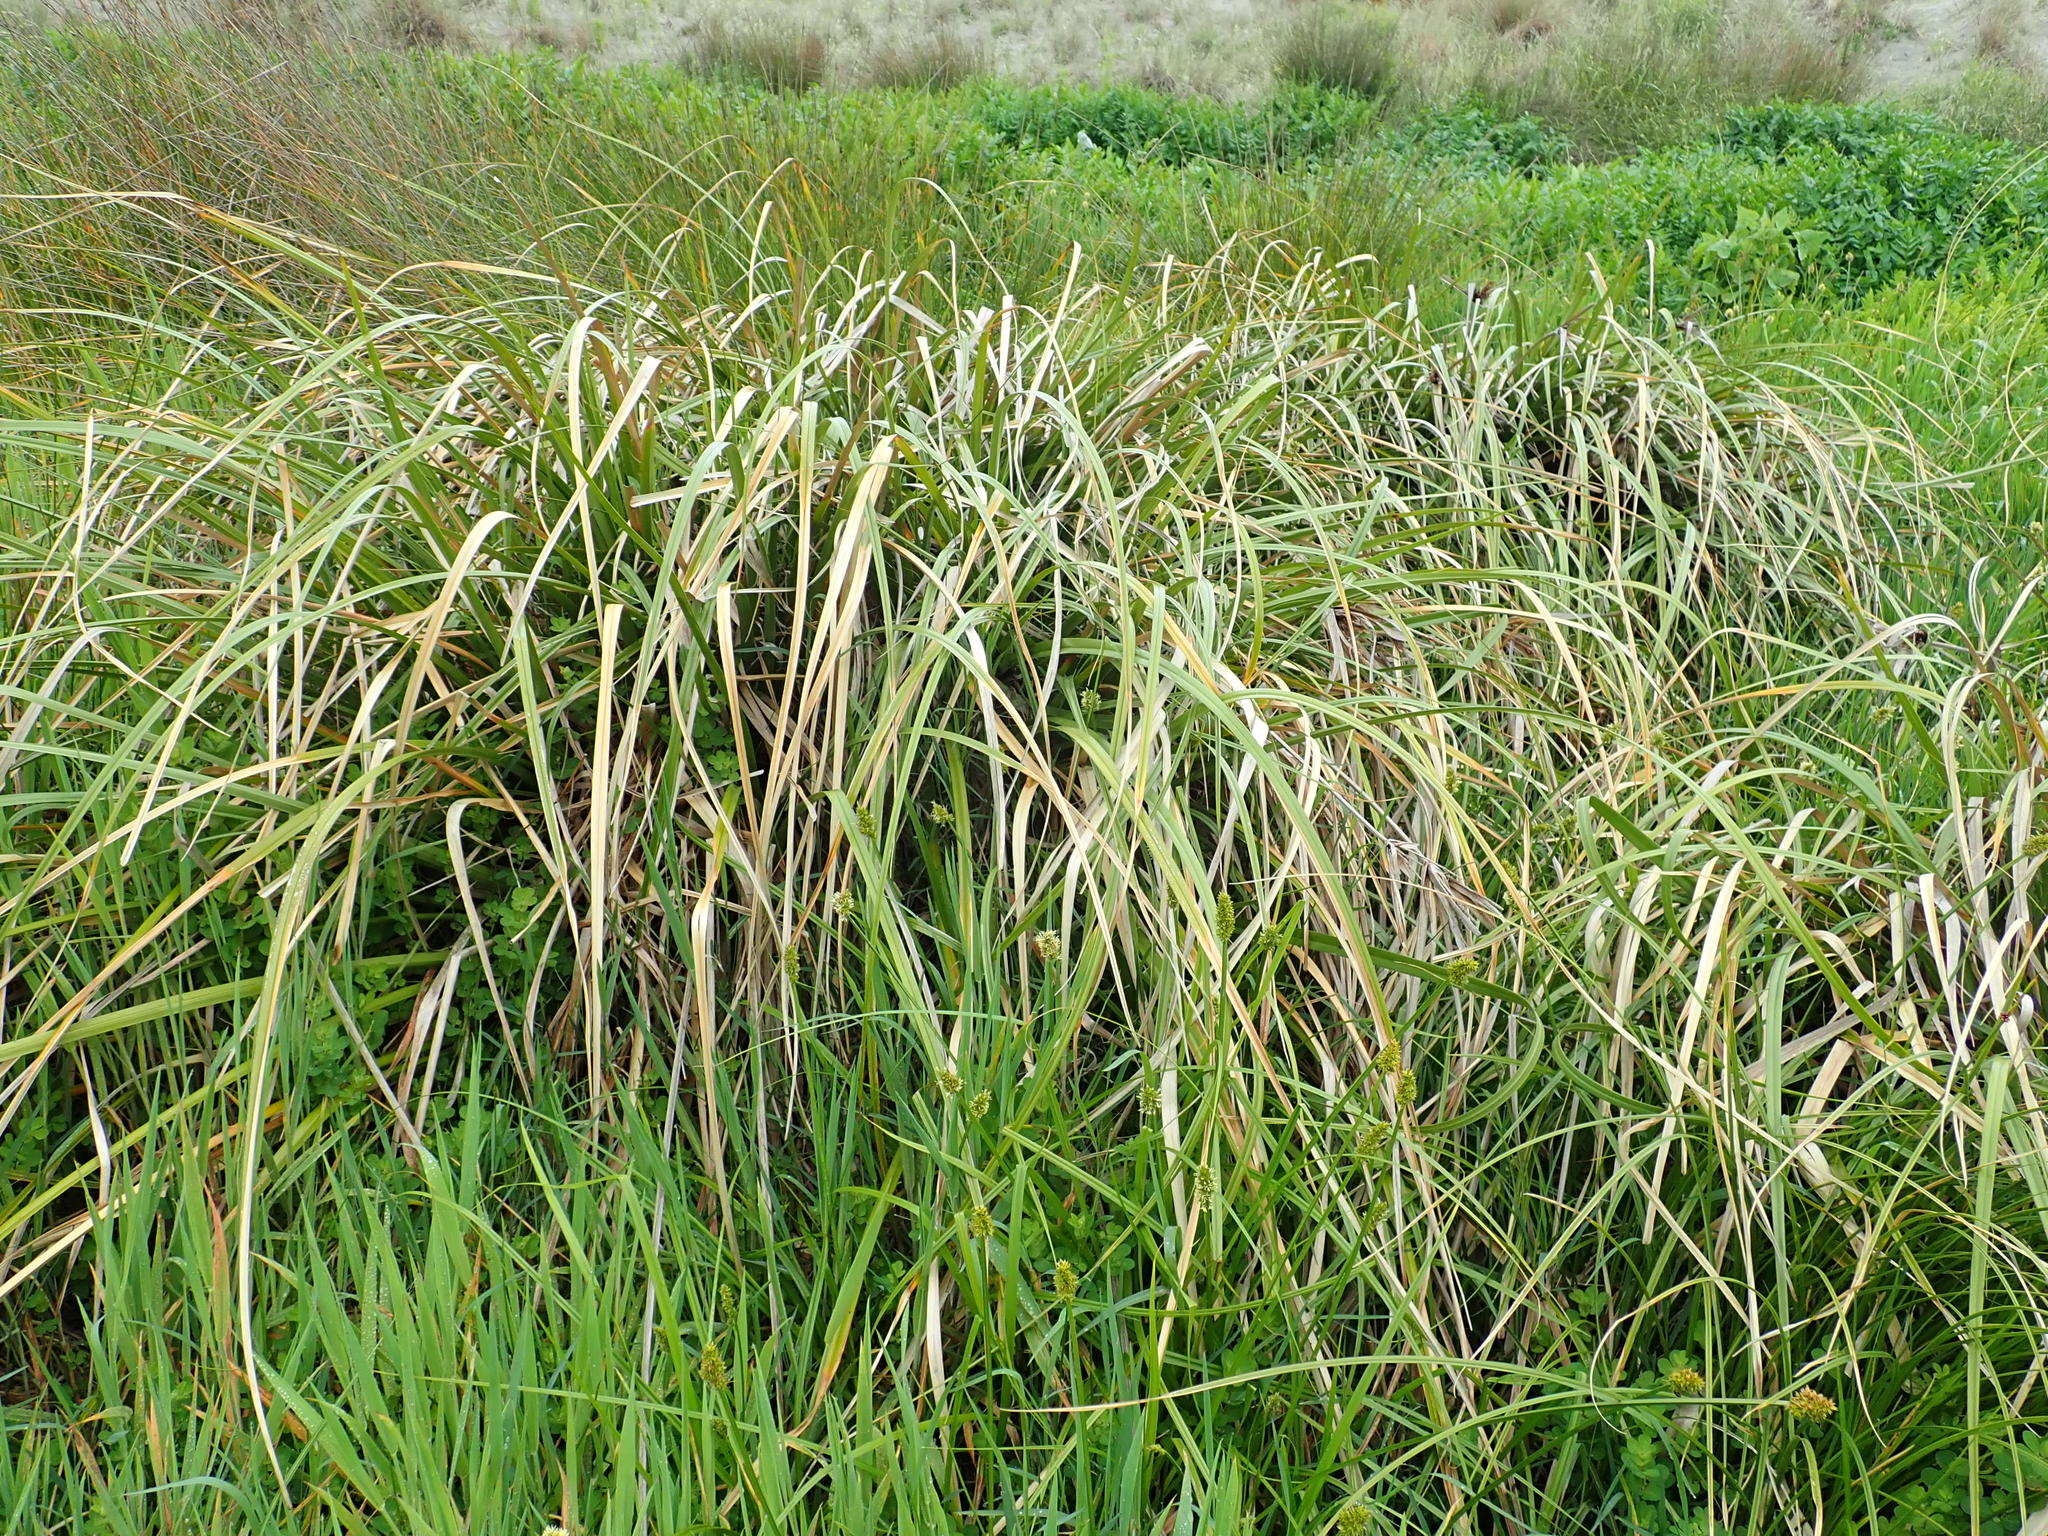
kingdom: Plantae
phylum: Tracheophyta
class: Liliopsida
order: Poales
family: Cyperaceae
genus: Cyperus
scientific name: Cyperus ustulatus
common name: Giant umbrella-sedge
